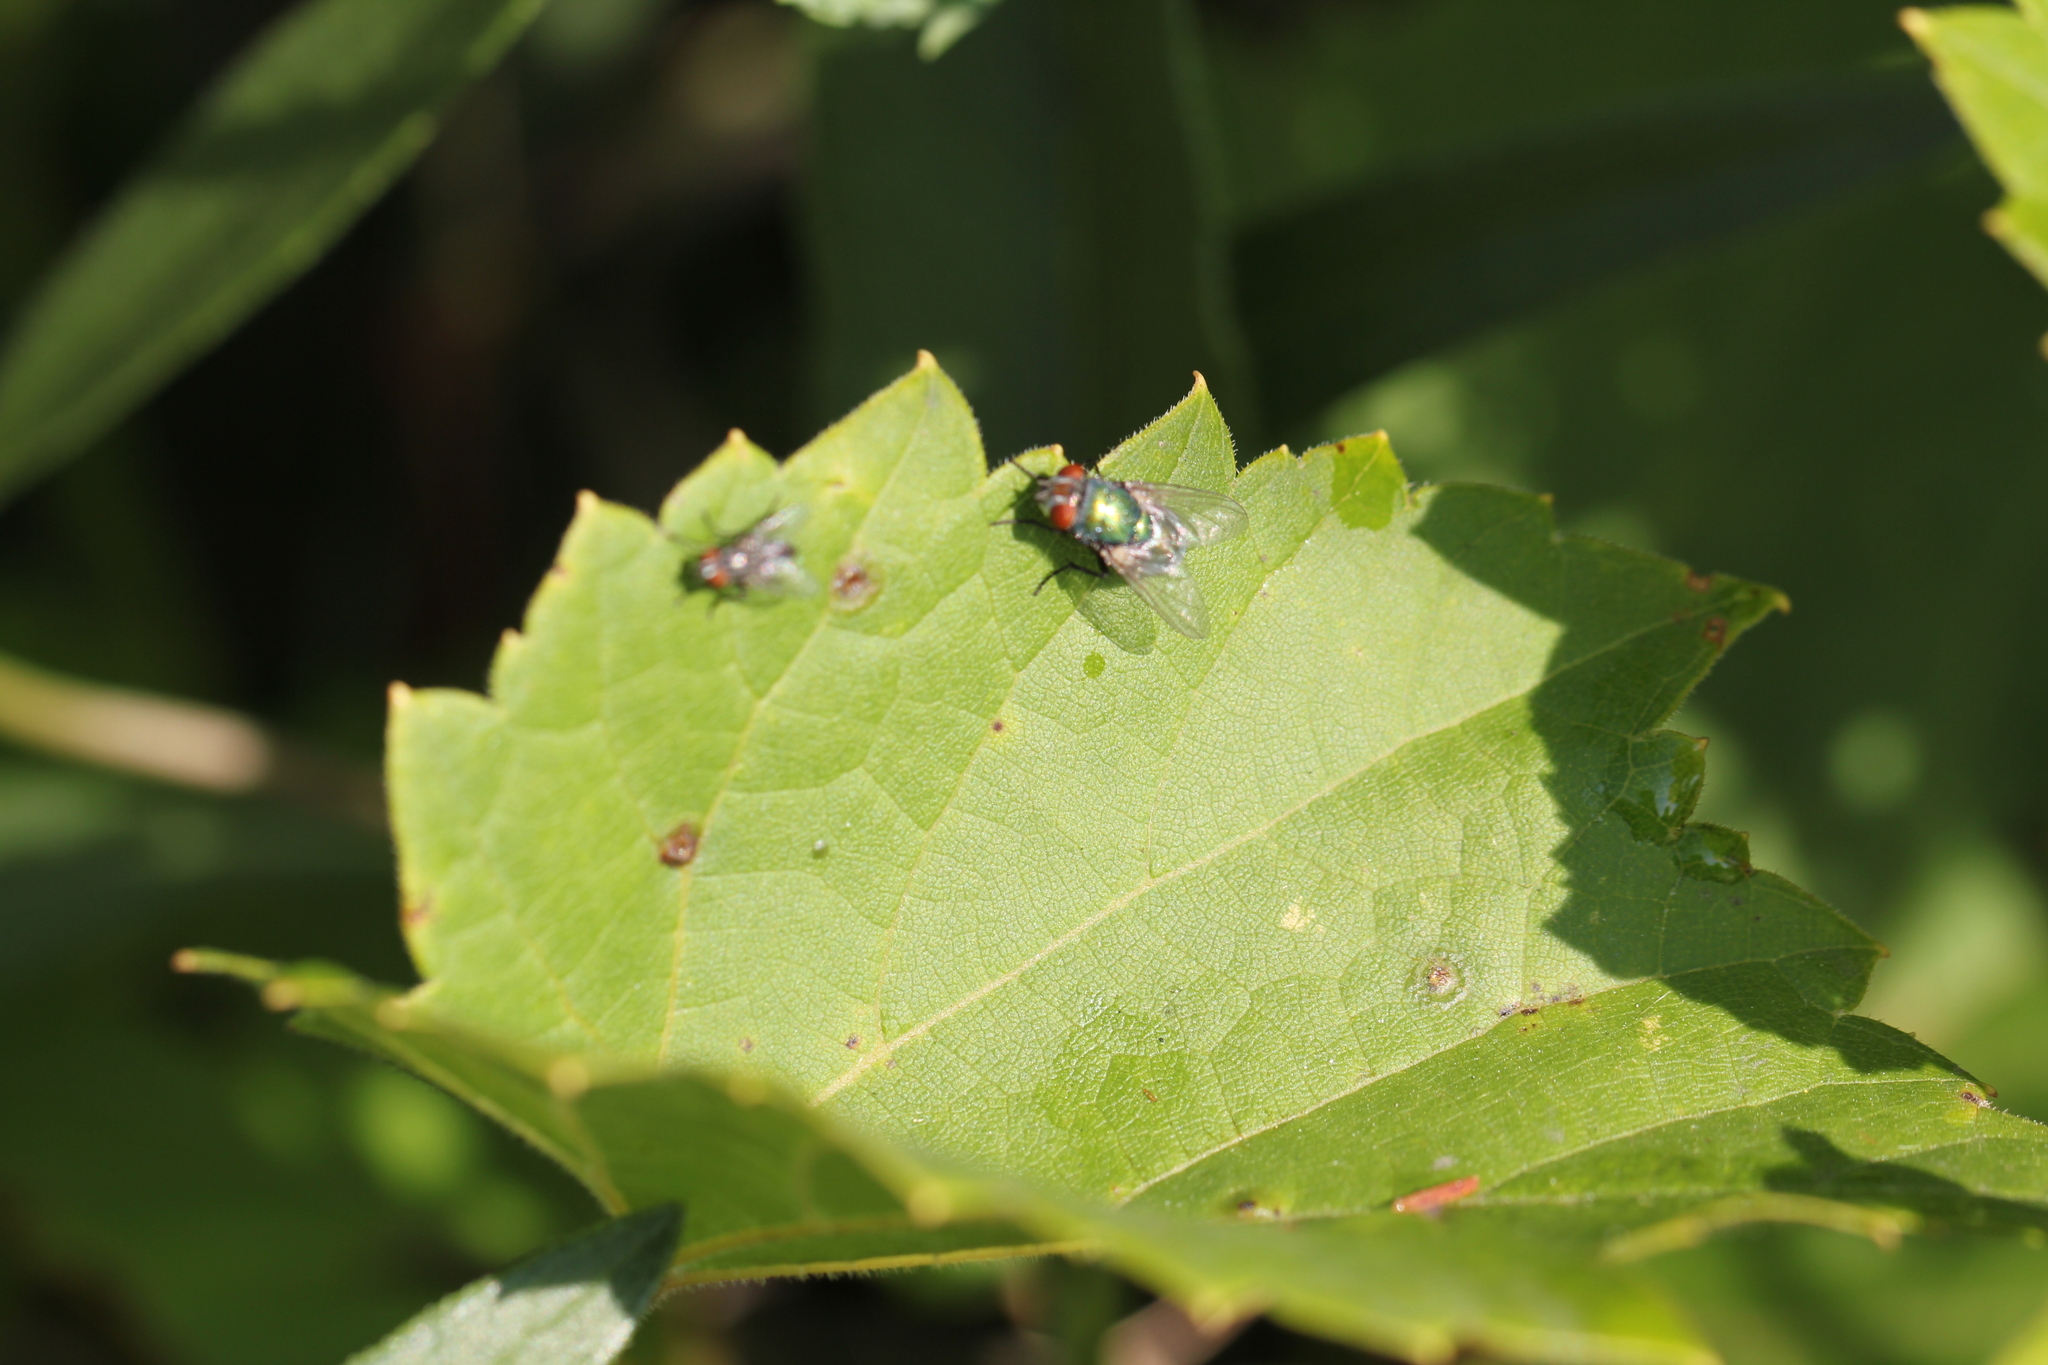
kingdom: Animalia
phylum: Arthropoda
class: Insecta
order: Diptera
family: Calliphoridae
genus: Lucilia
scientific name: Lucilia sericata
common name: Blow fly
